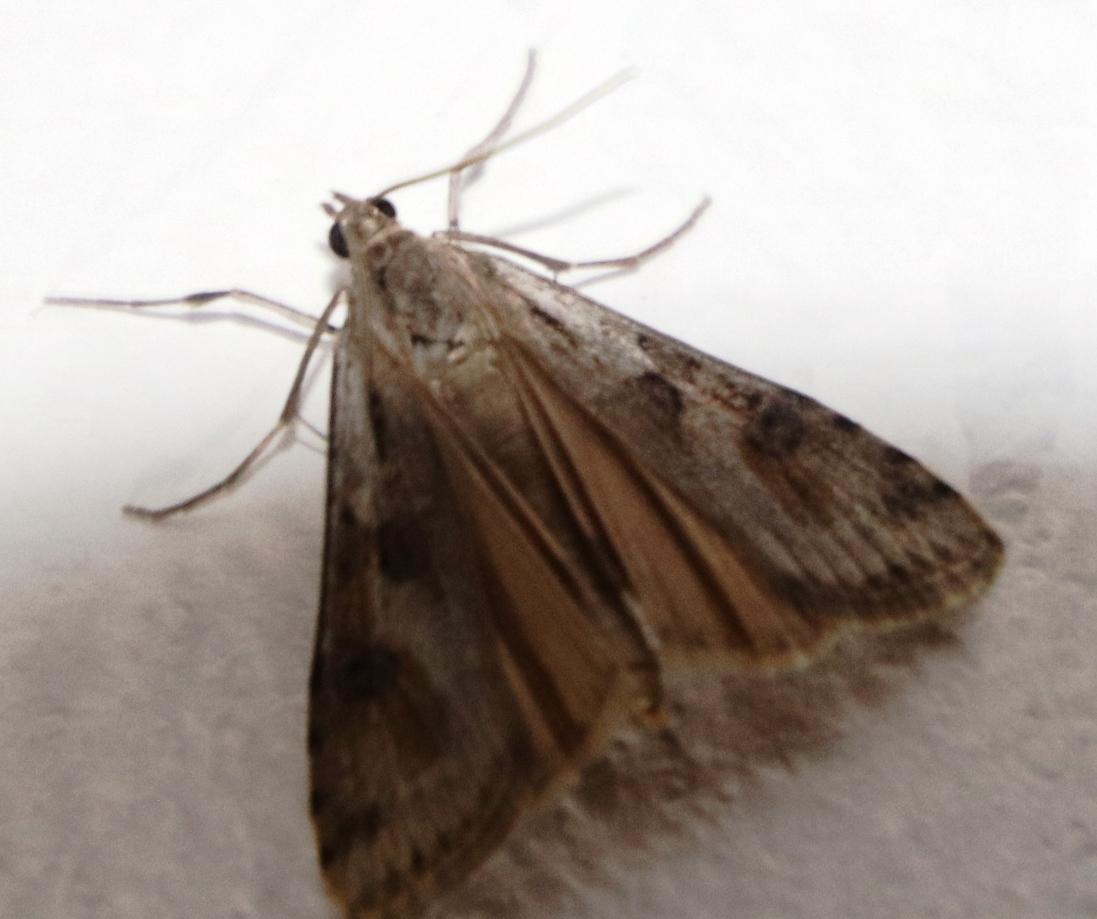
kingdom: Animalia
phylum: Arthropoda
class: Insecta
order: Lepidoptera
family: Crambidae
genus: Nomophila
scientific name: Nomophila noctuella
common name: Rush veneer
